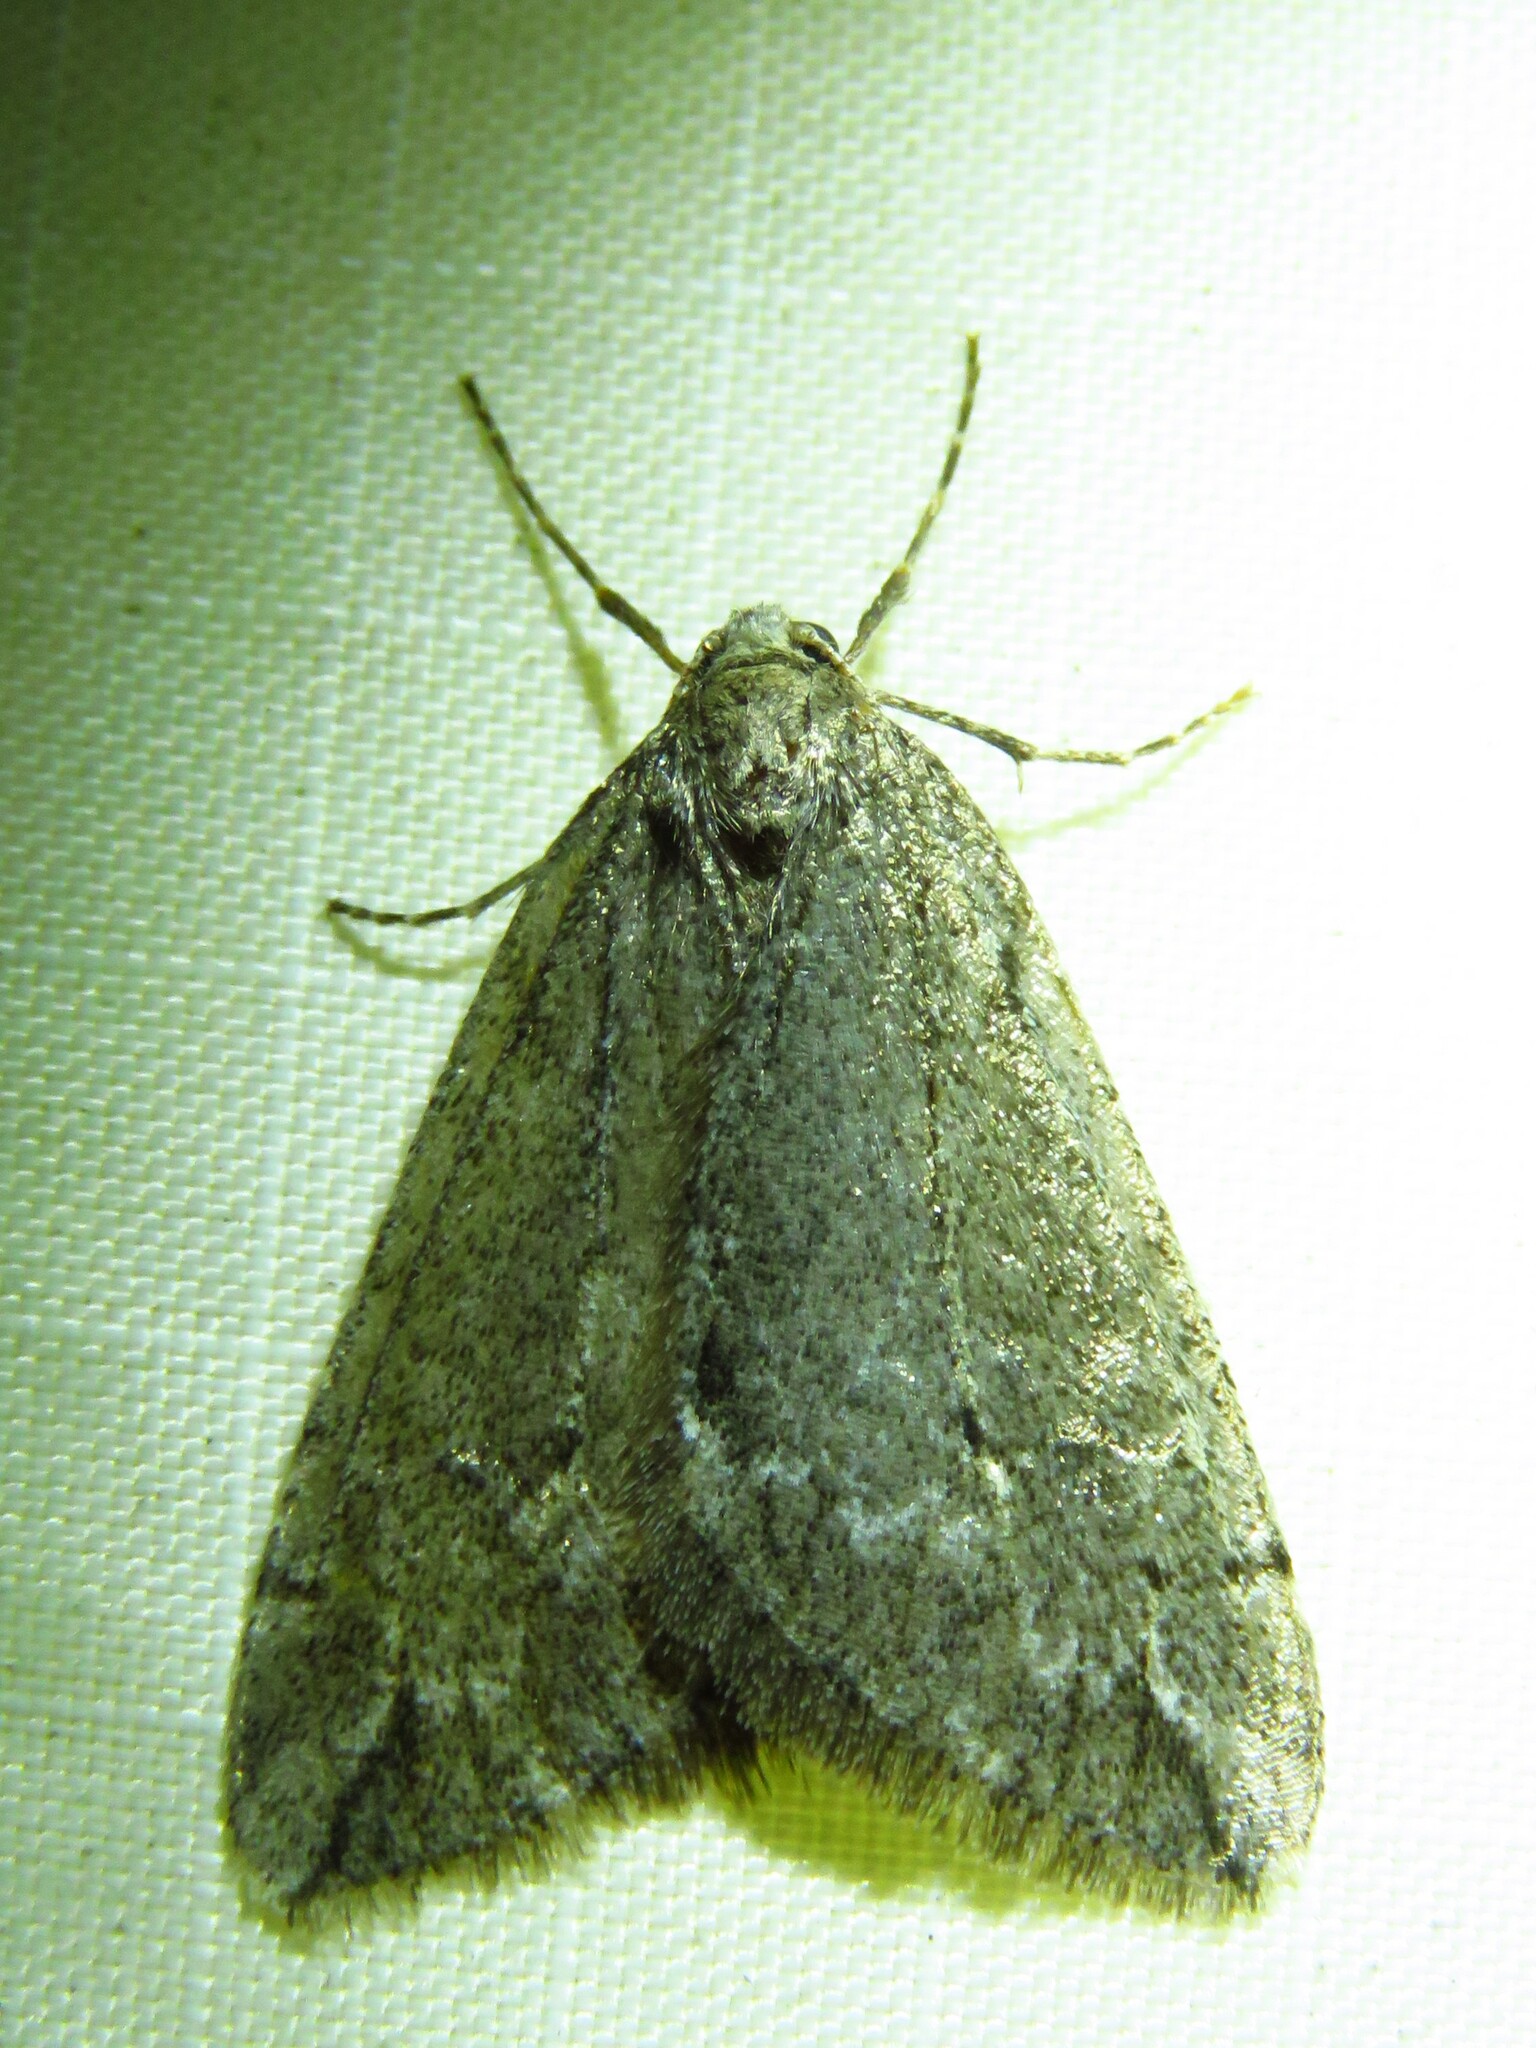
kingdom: Animalia
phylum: Arthropoda
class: Insecta
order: Lepidoptera
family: Geometridae
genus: Paleacrita
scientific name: Paleacrita vernata
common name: Spring cankerworm
